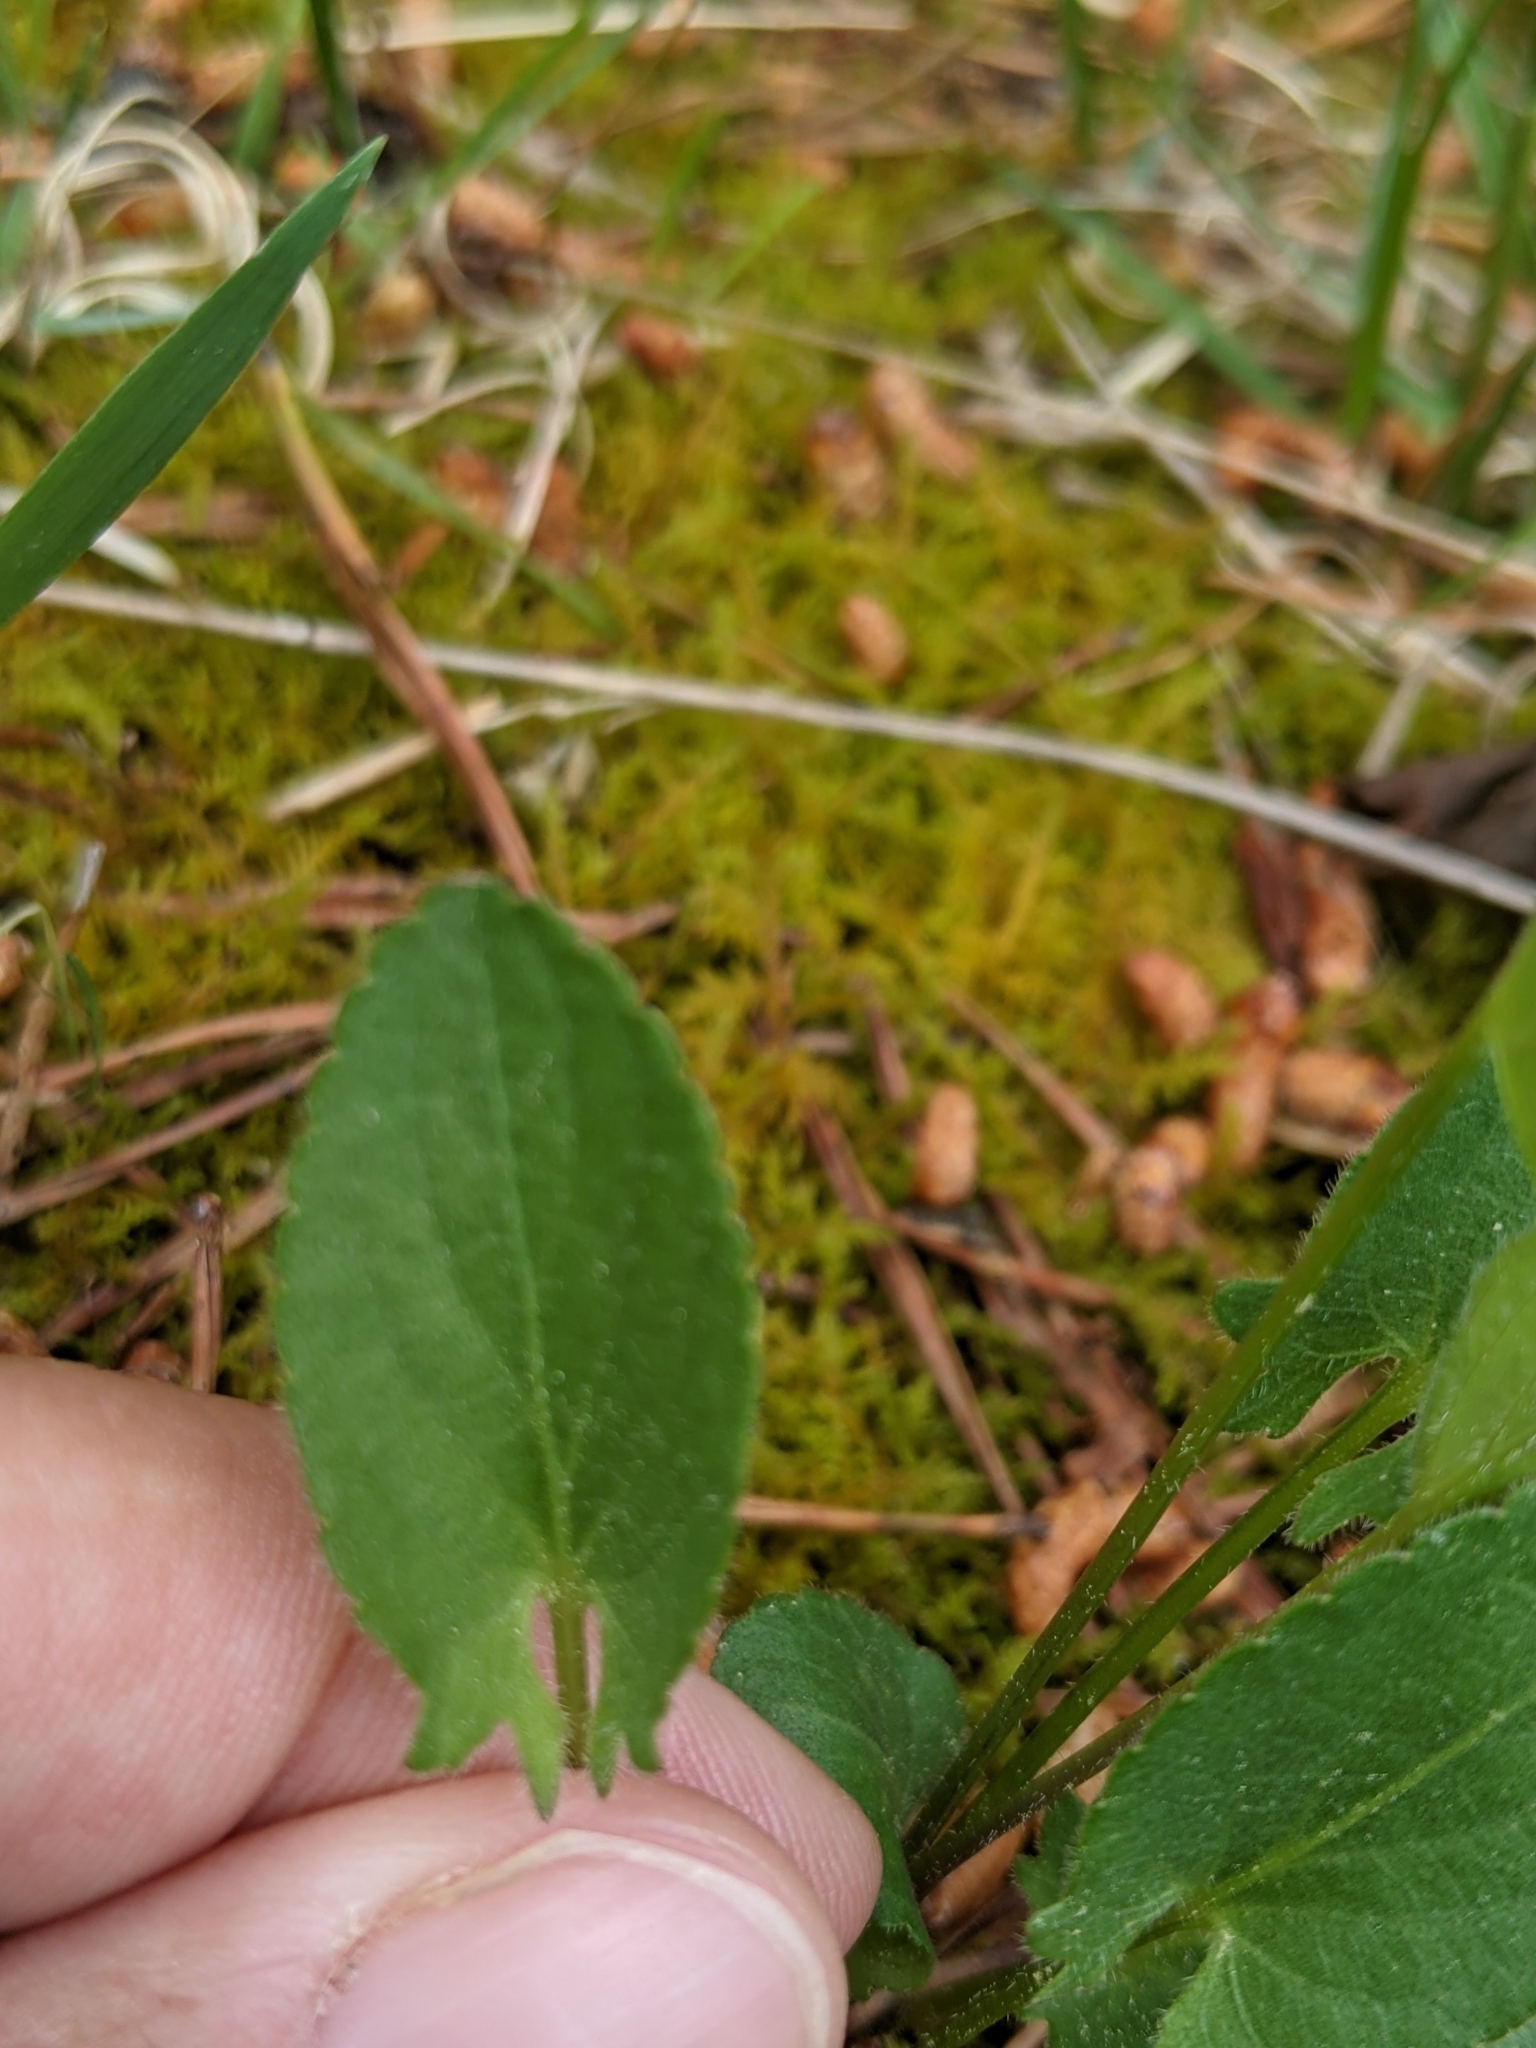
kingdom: Plantae
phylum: Tracheophyta
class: Magnoliopsida
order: Malpighiales
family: Violaceae
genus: Viola
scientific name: Viola sagittata
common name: Arrowhead violet
